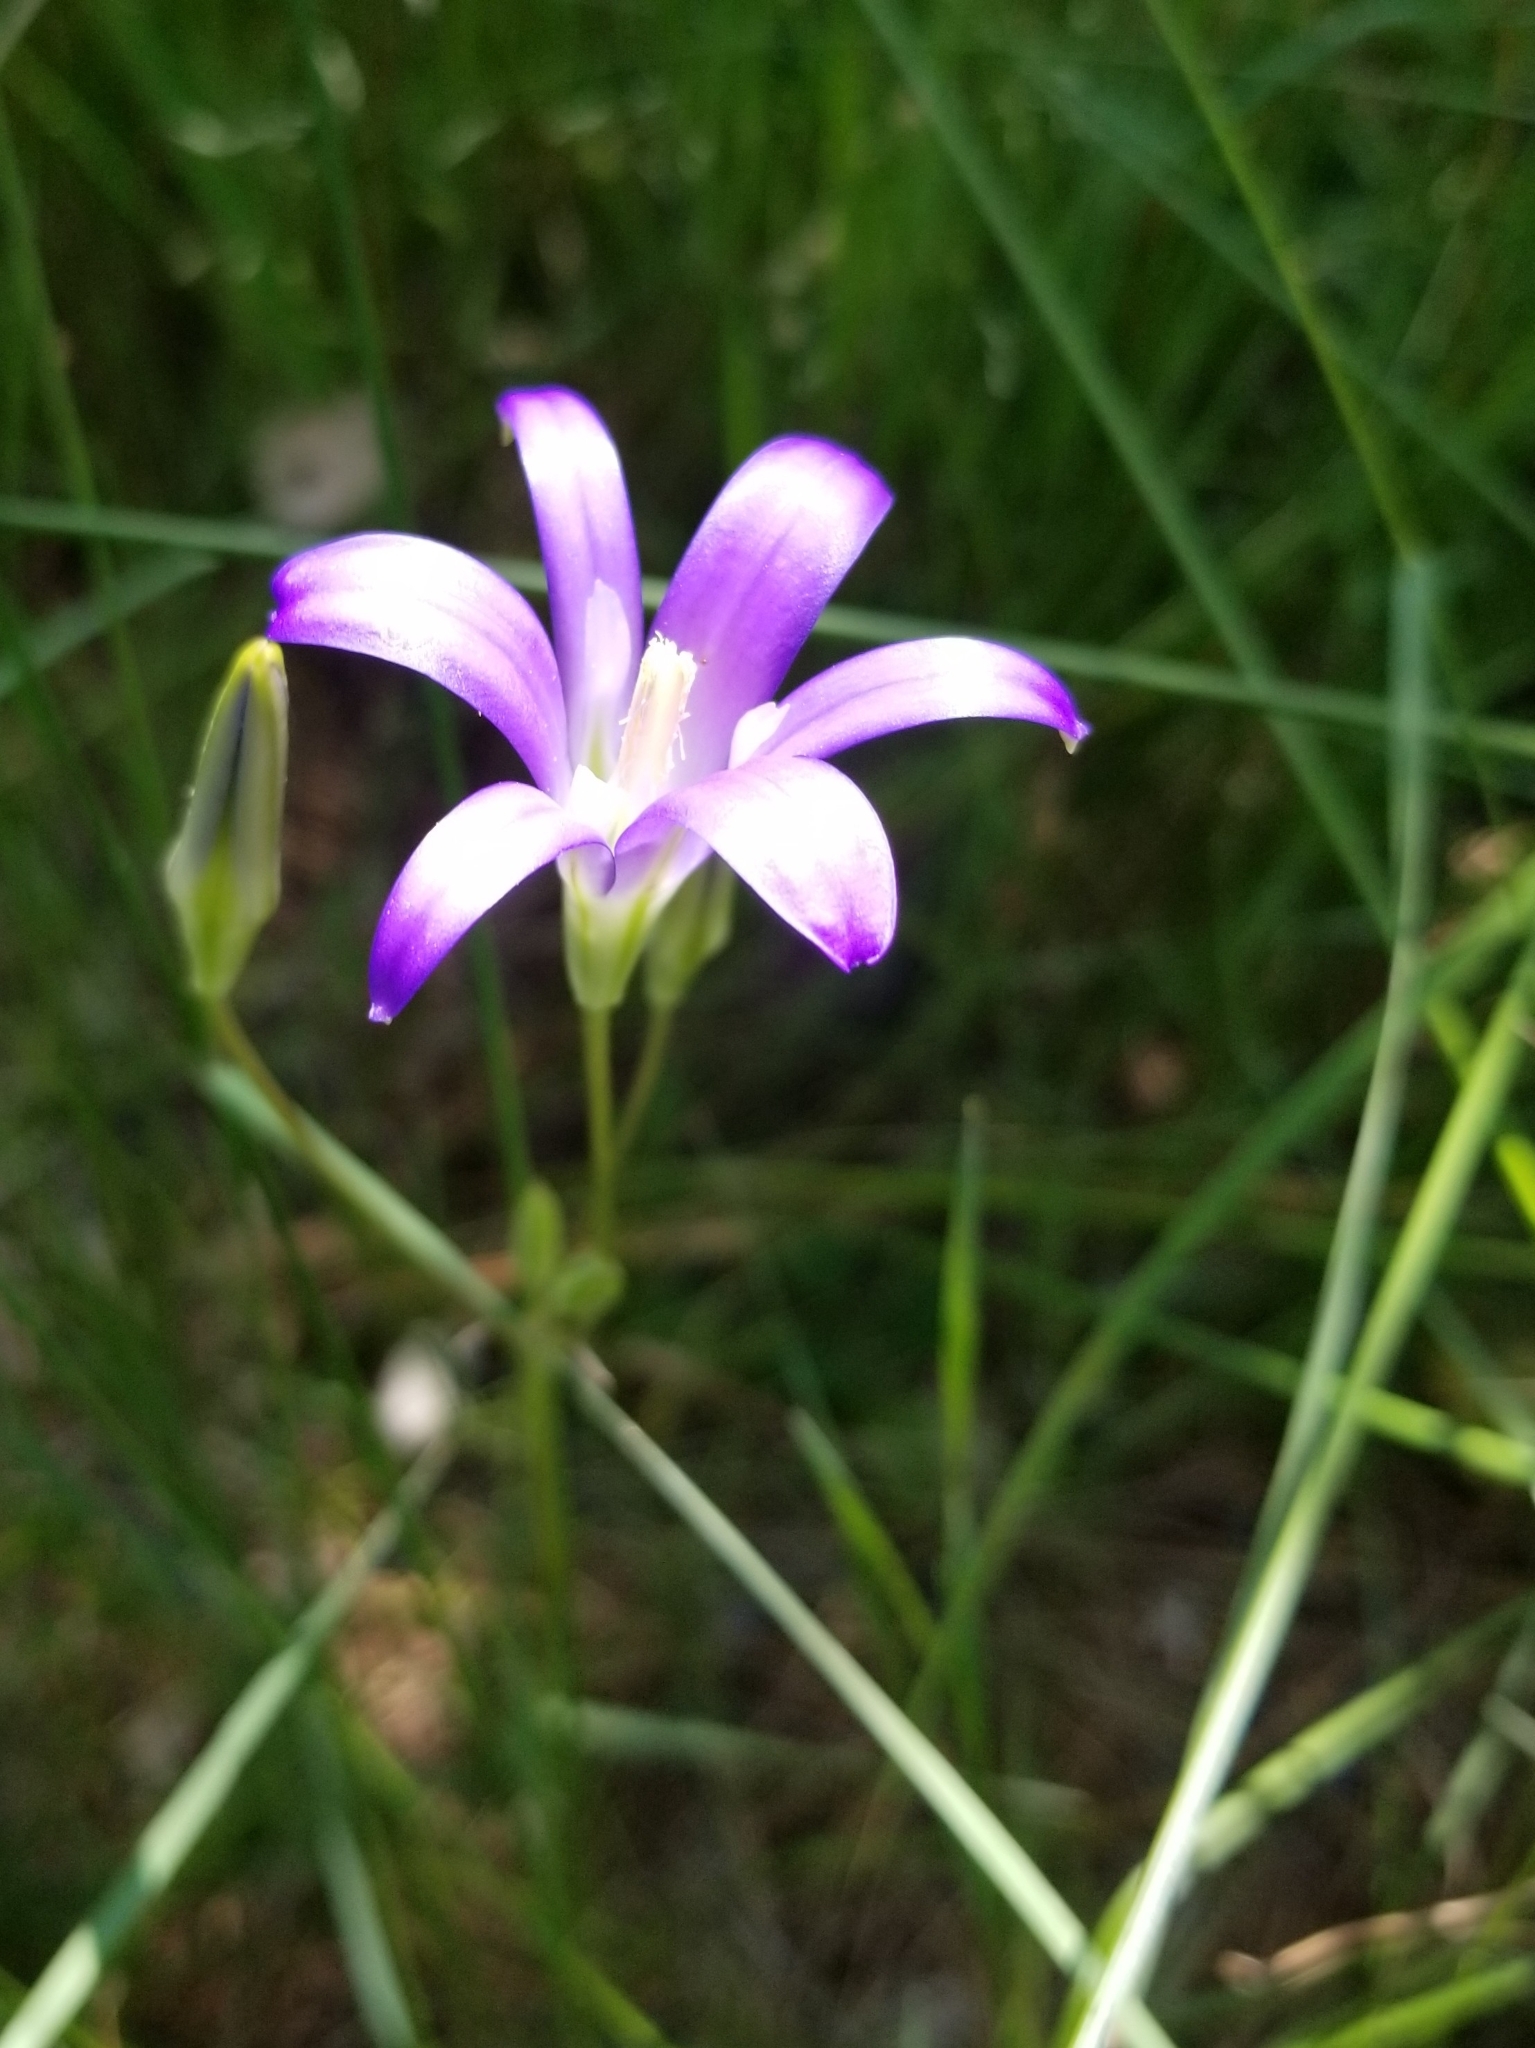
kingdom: Plantae
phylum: Tracheophyta
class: Liliopsida
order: Asparagales
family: Asparagaceae
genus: Brodiaea
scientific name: Brodiaea elegans
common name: Elegant cluster-lily
